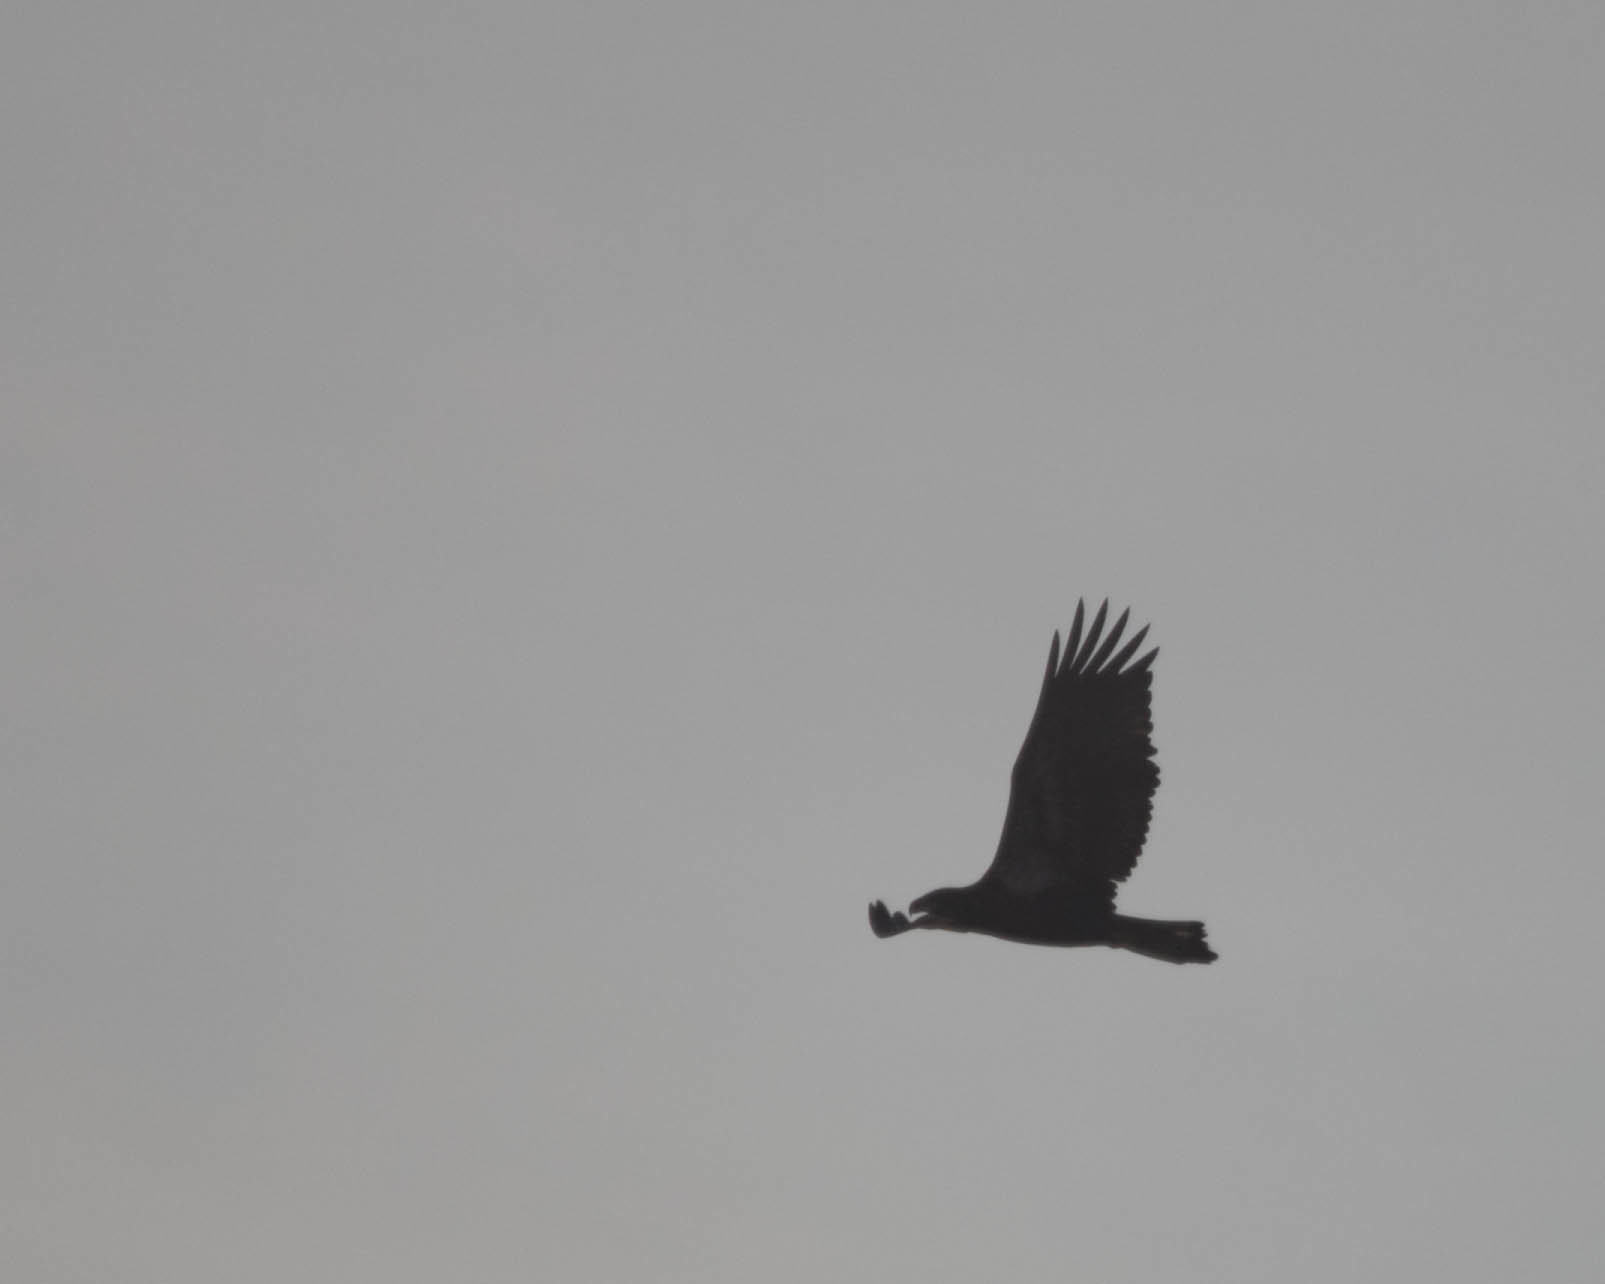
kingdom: Animalia
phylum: Chordata
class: Aves
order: Accipitriformes
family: Accipitridae
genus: Haliaeetus
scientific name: Haliaeetus leucocephalus
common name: Bald eagle
